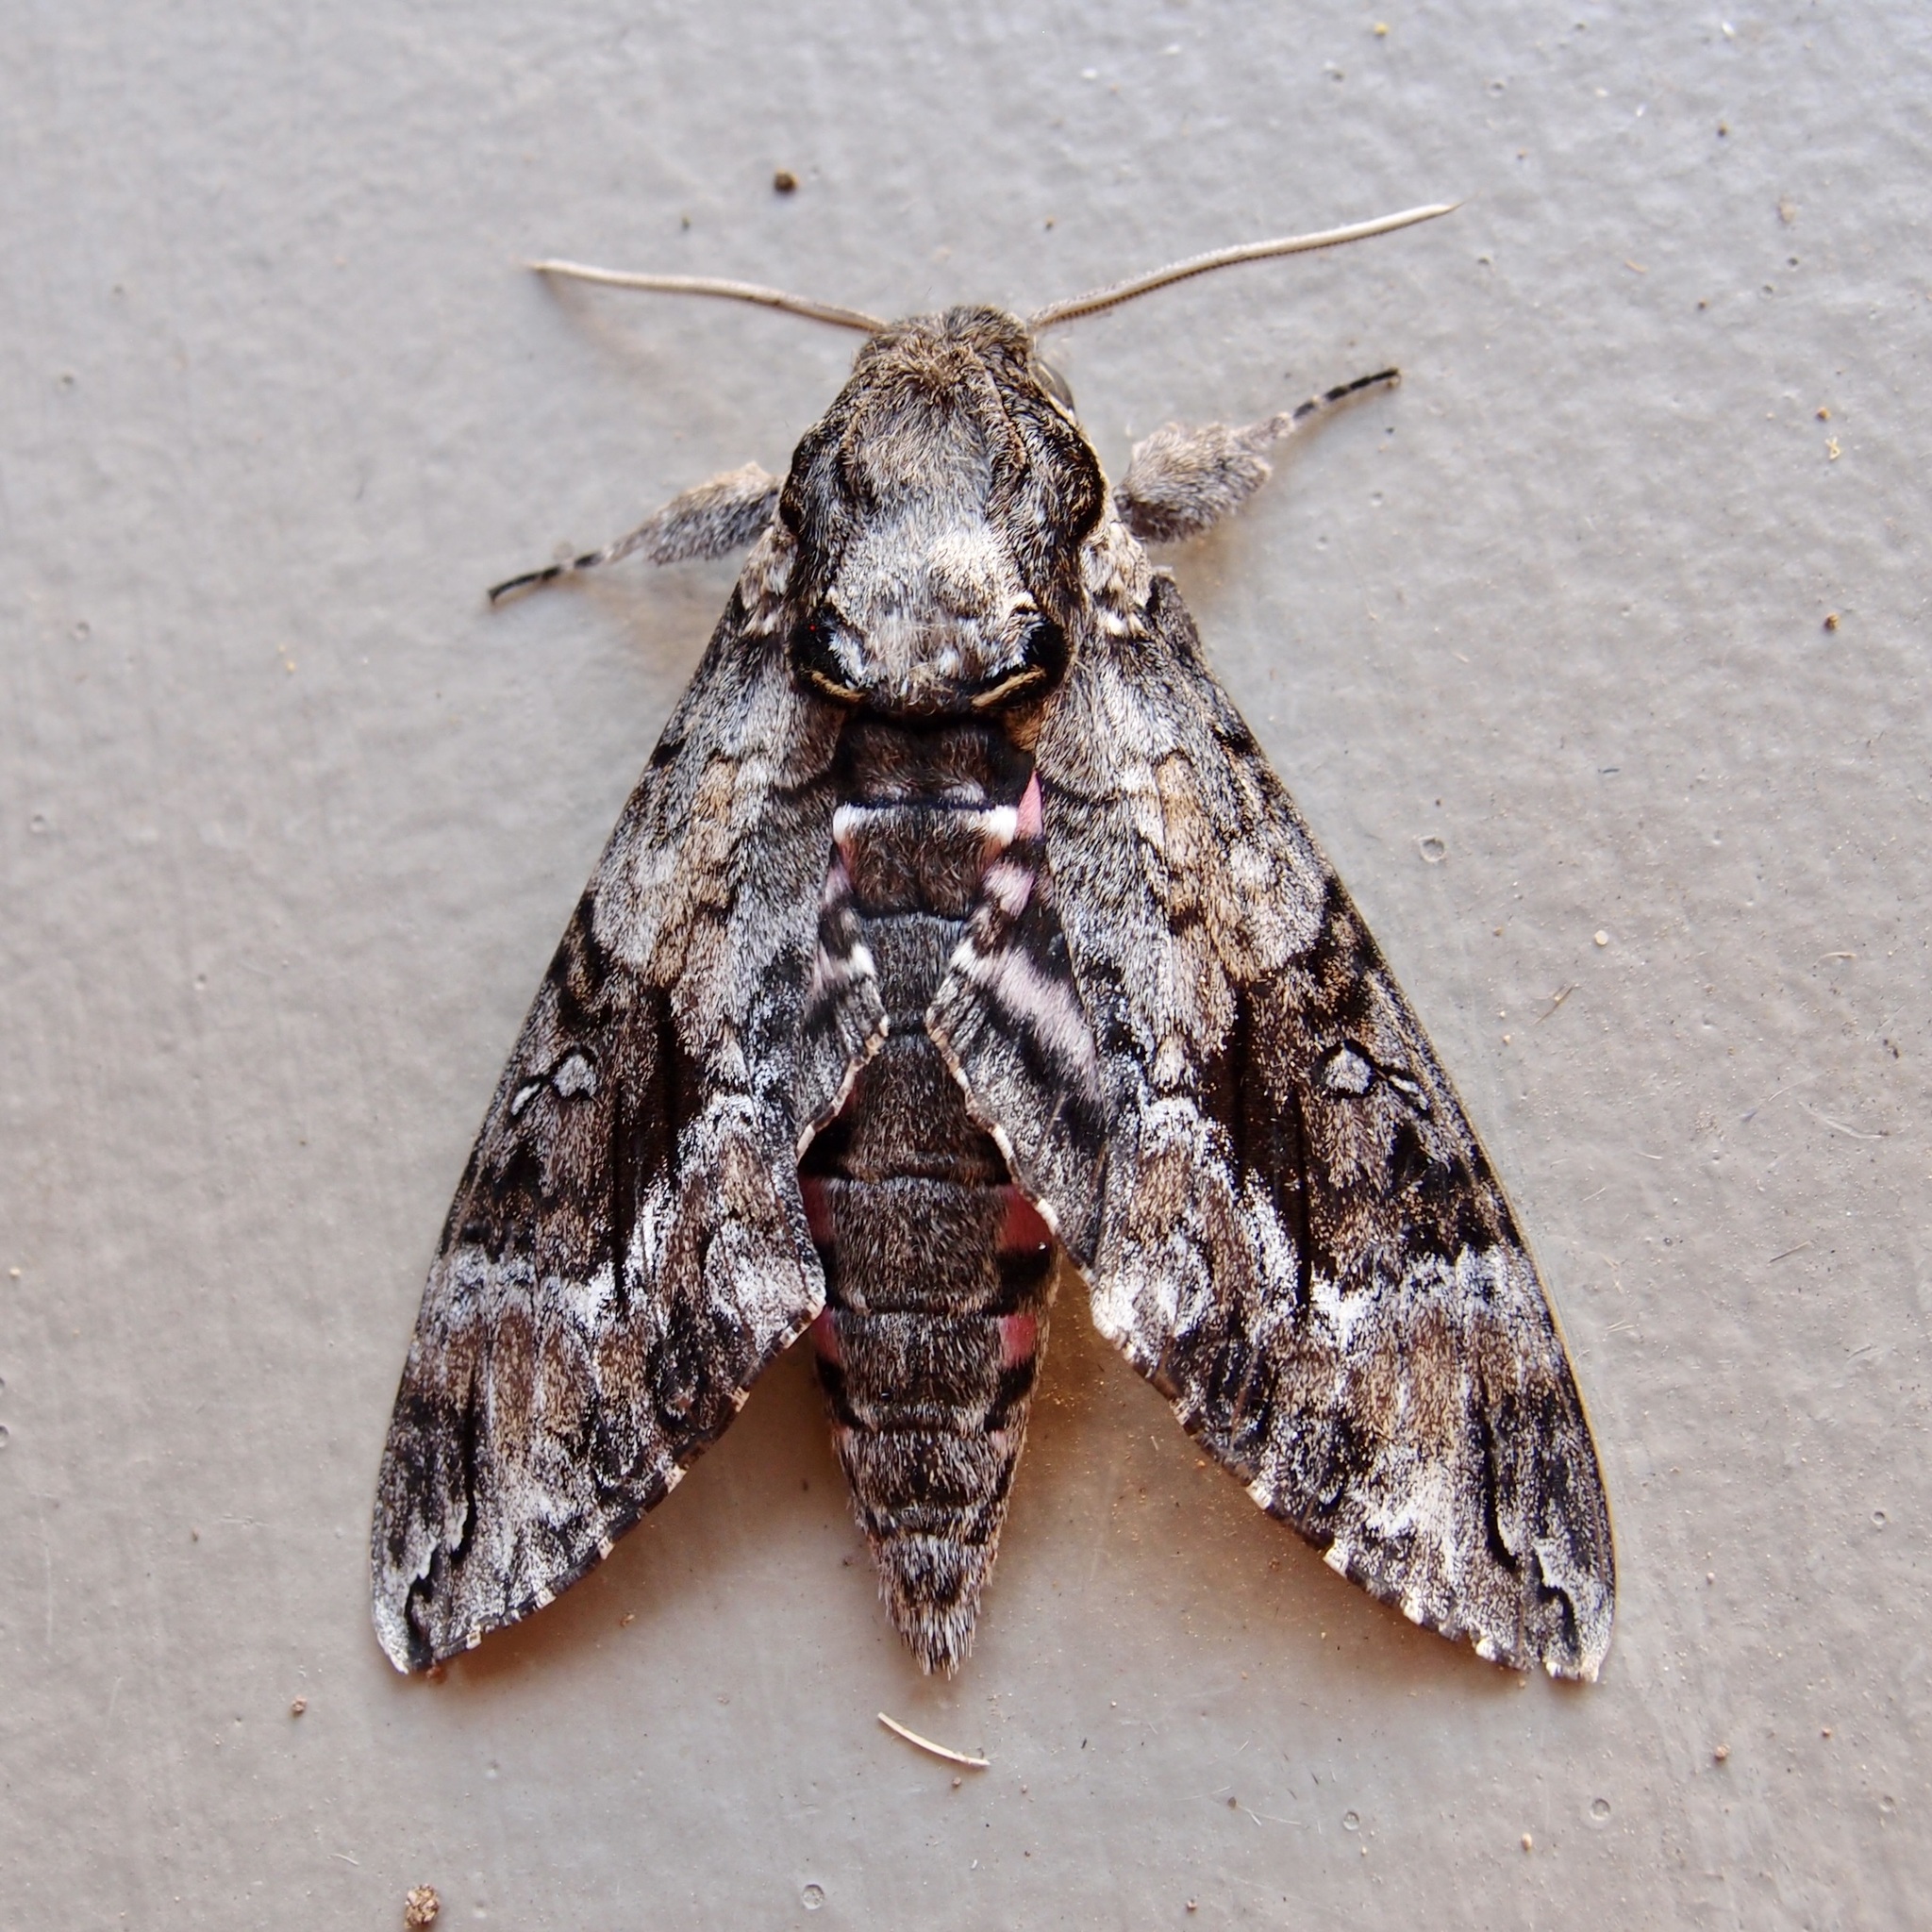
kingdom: Animalia
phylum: Arthropoda
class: Insecta
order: Lepidoptera
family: Sphingidae
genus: Agrius
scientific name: Agrius cingulata
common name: Pink-spotted hawkmoth
